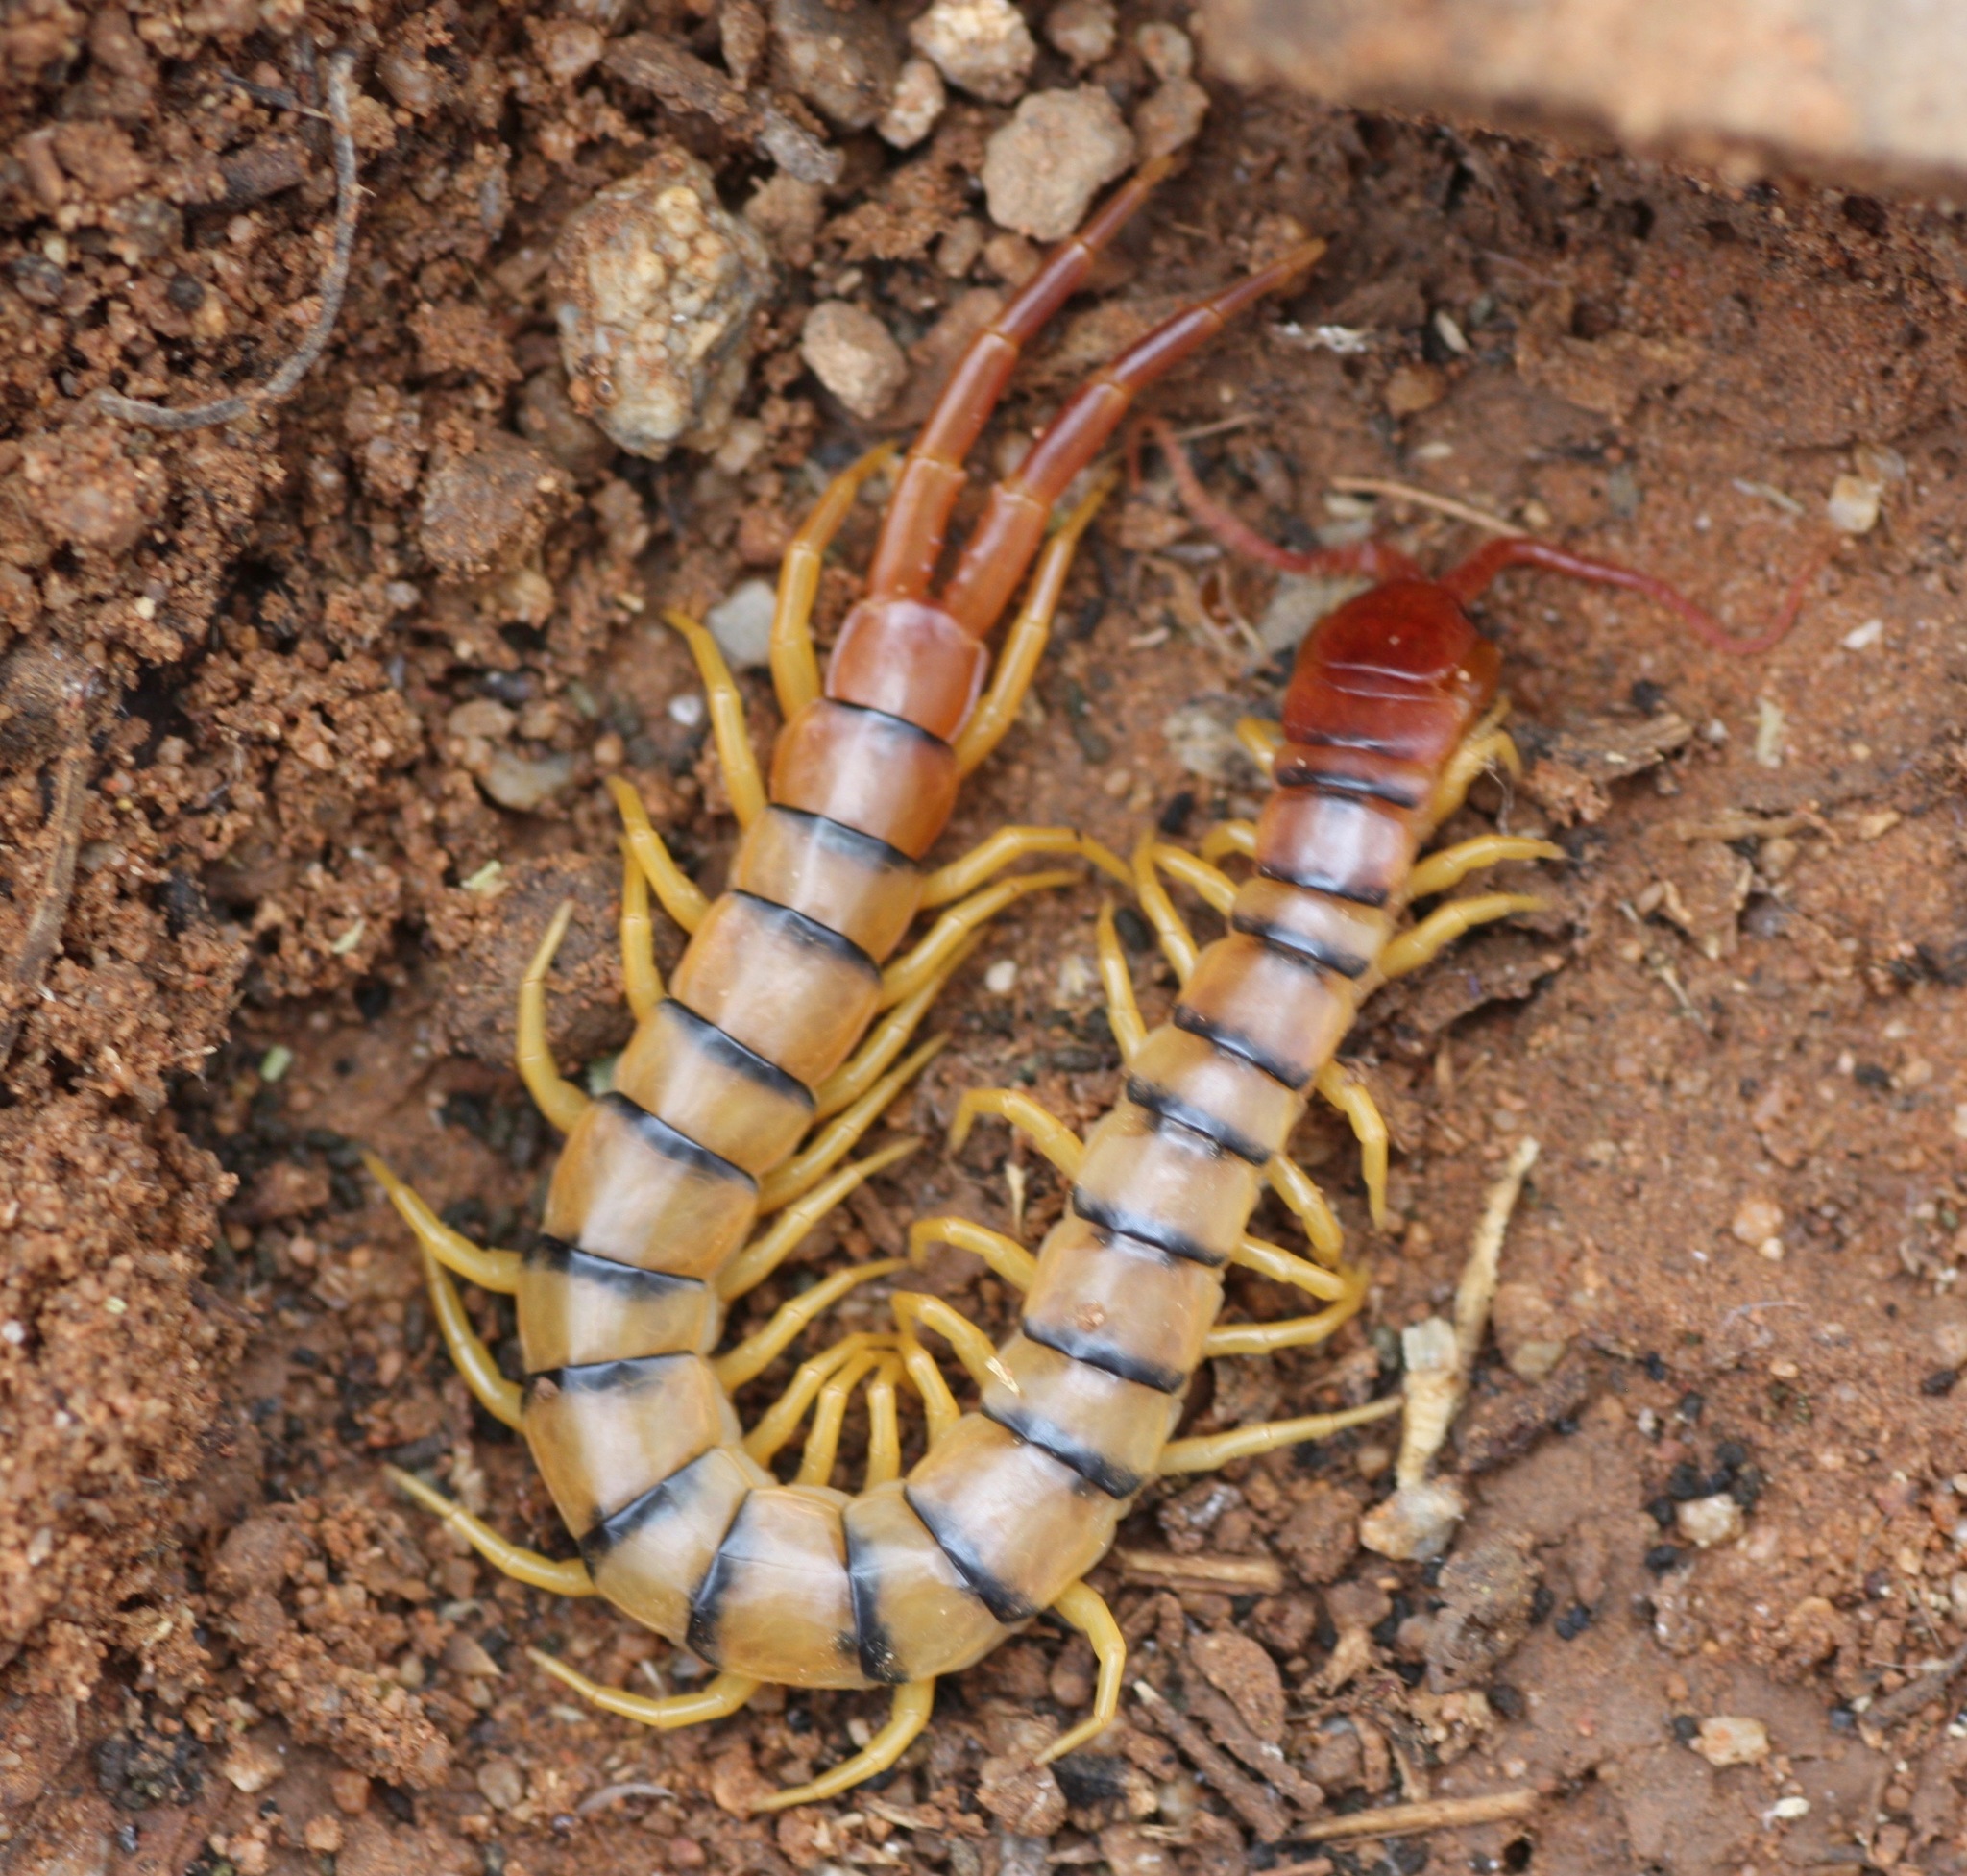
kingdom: Animalia
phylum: Arthropoda
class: Chilopoda
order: Scolopendromorpha
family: Scolopendridae
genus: Scolopendra
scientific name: Scolopendra polymorpha
